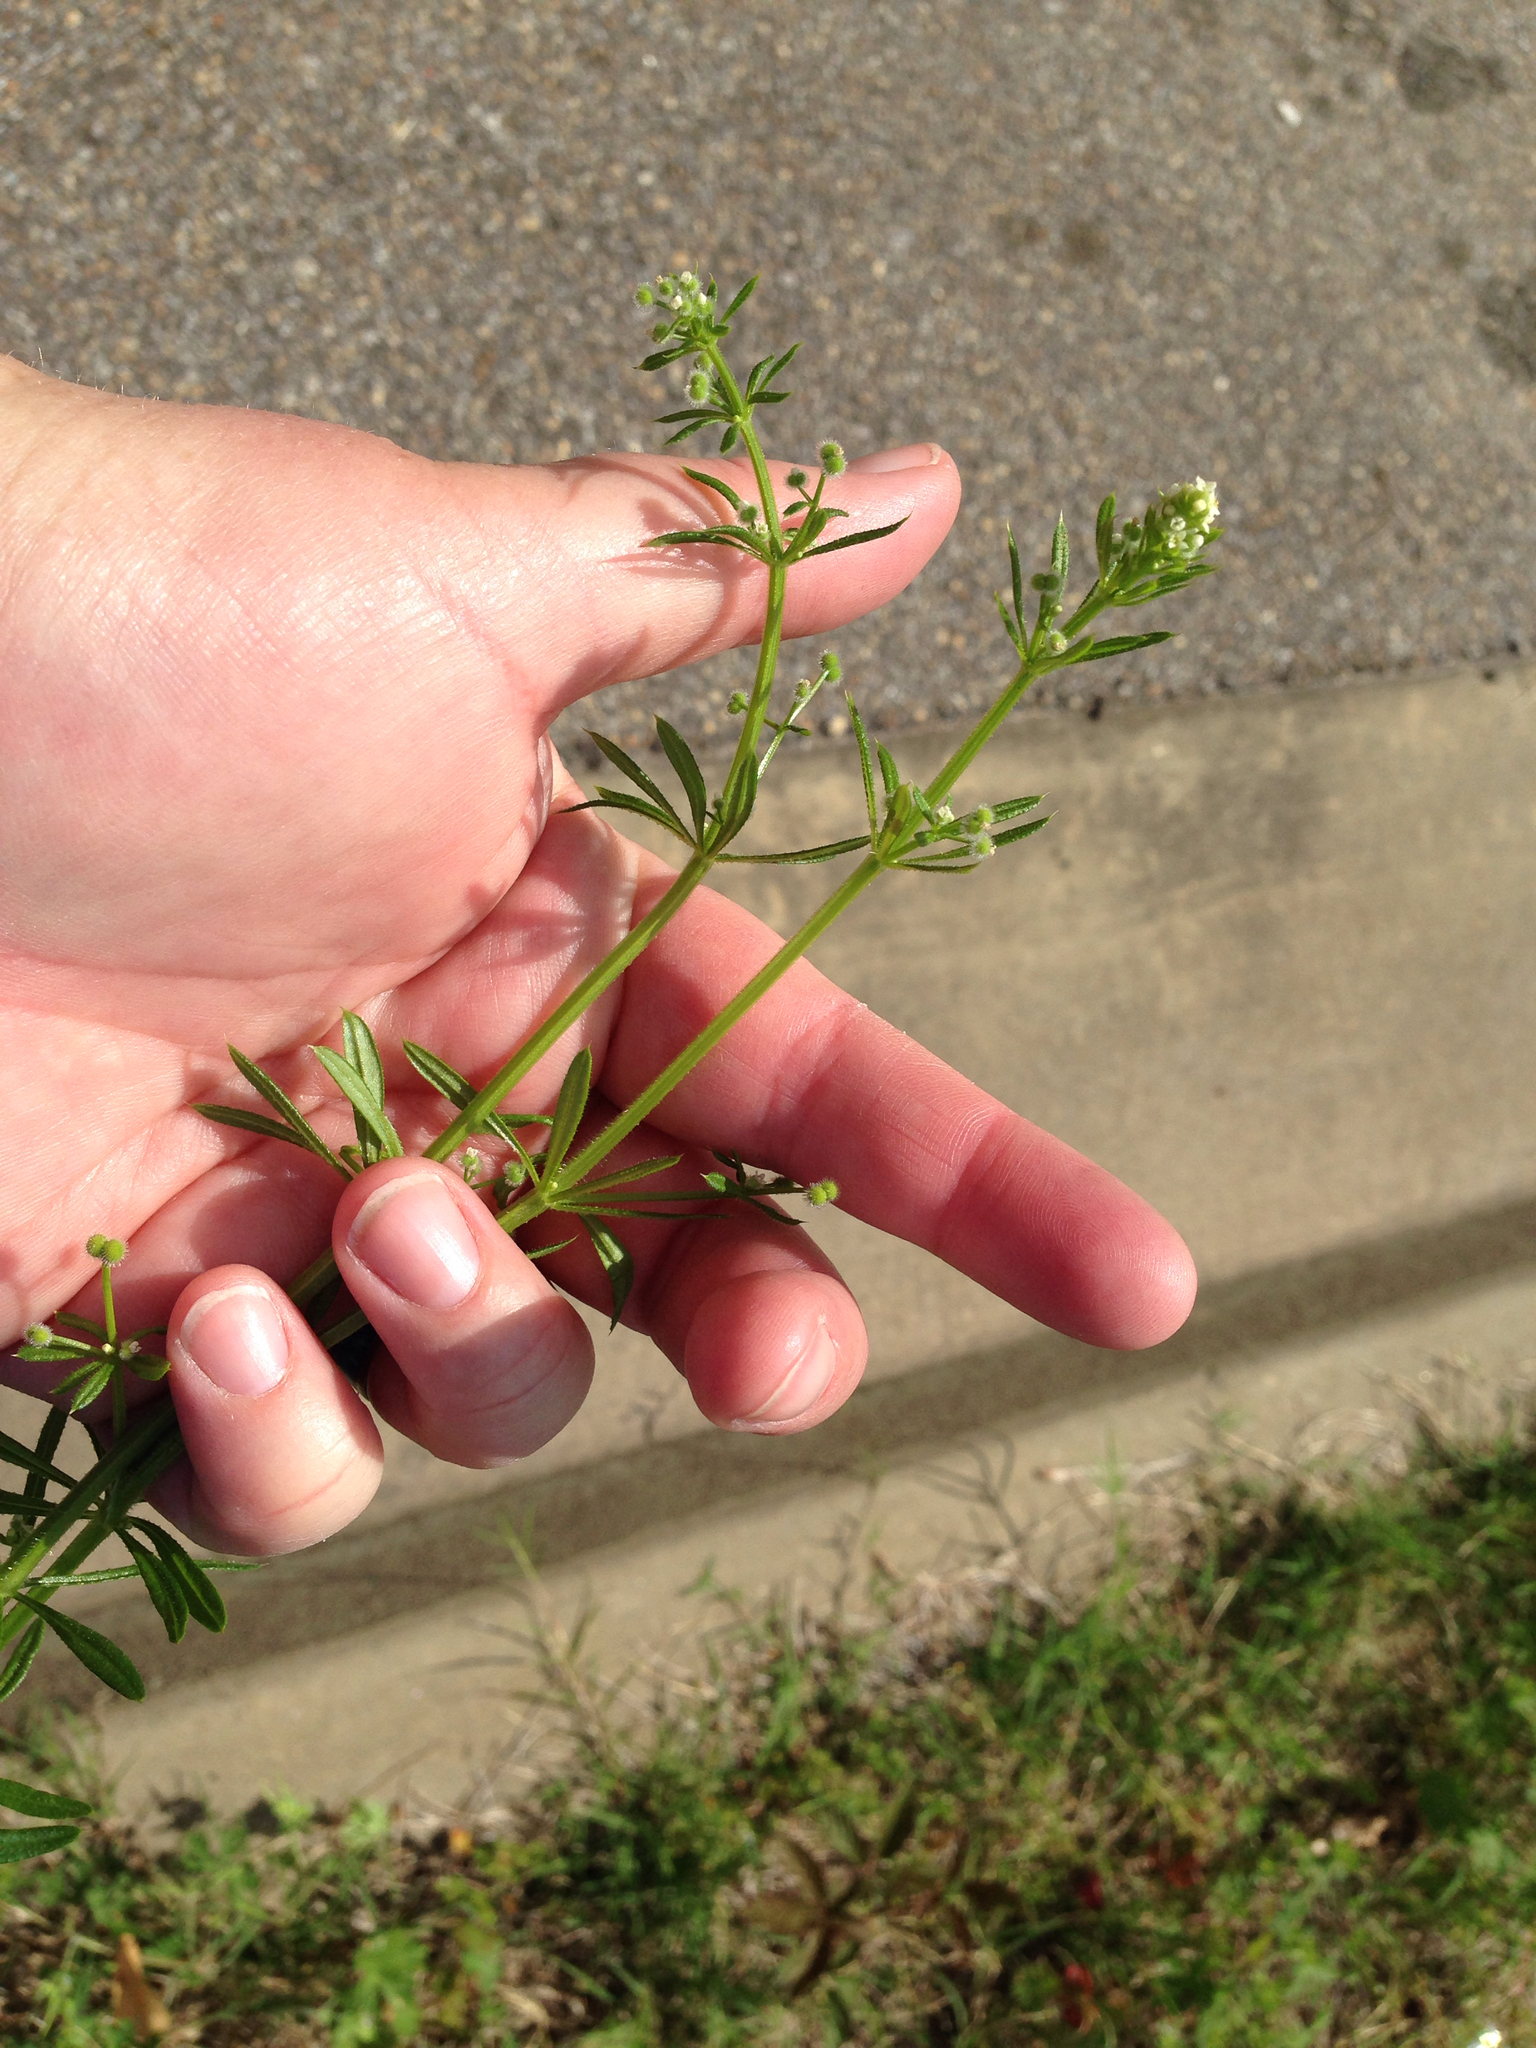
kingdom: Plantae
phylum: Tracheophyta
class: Magnoliopsida
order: Gentianales
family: Rubiaceae
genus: Galium
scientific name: Galium aparine
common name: Cleavers
